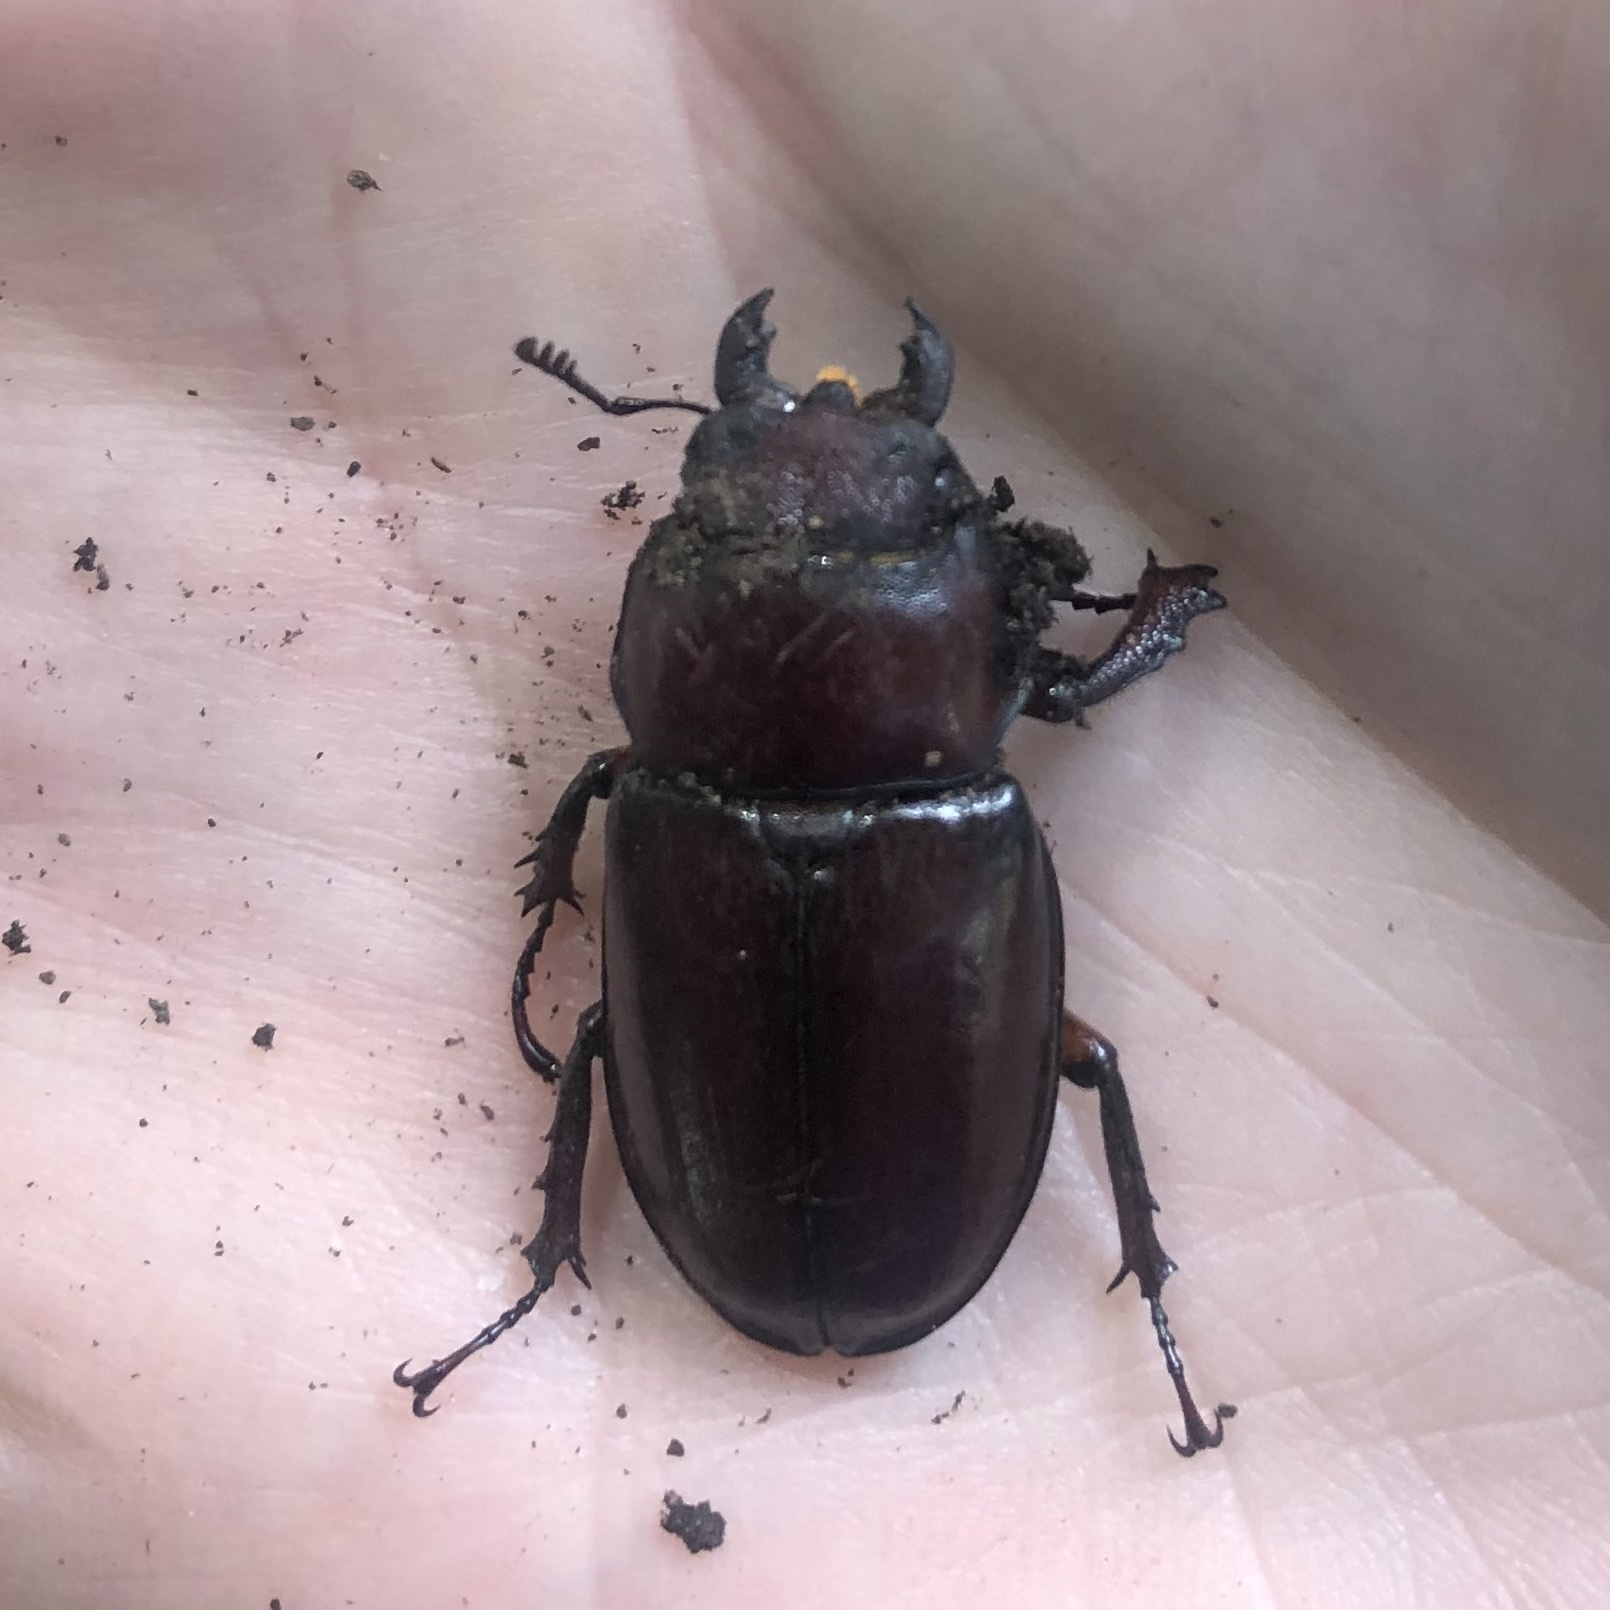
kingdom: Animalia
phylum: Arthropoda
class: Insecta
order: Coleoptera
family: Lucanidae
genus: Lucanus
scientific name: Lucanus capreolus
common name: Stag beetle
